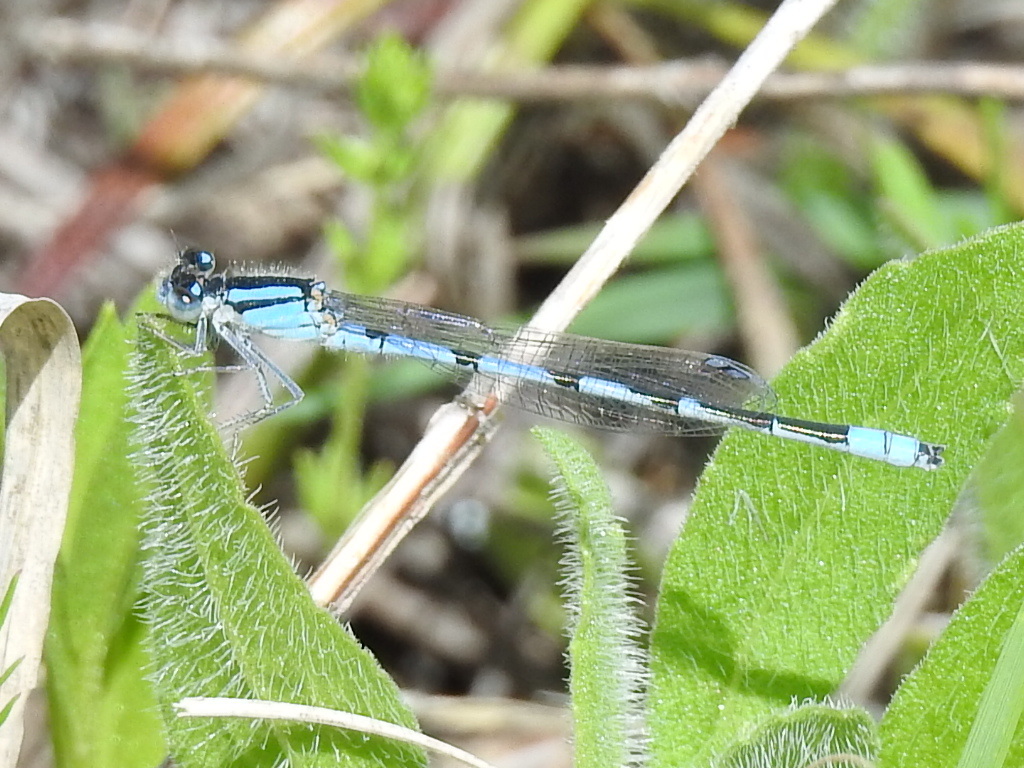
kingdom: Animalia
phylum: Arthropoda
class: Insecta
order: Odonata
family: Coenagrionidae
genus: Enallagma
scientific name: Enallagma civile
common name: Damselfly
